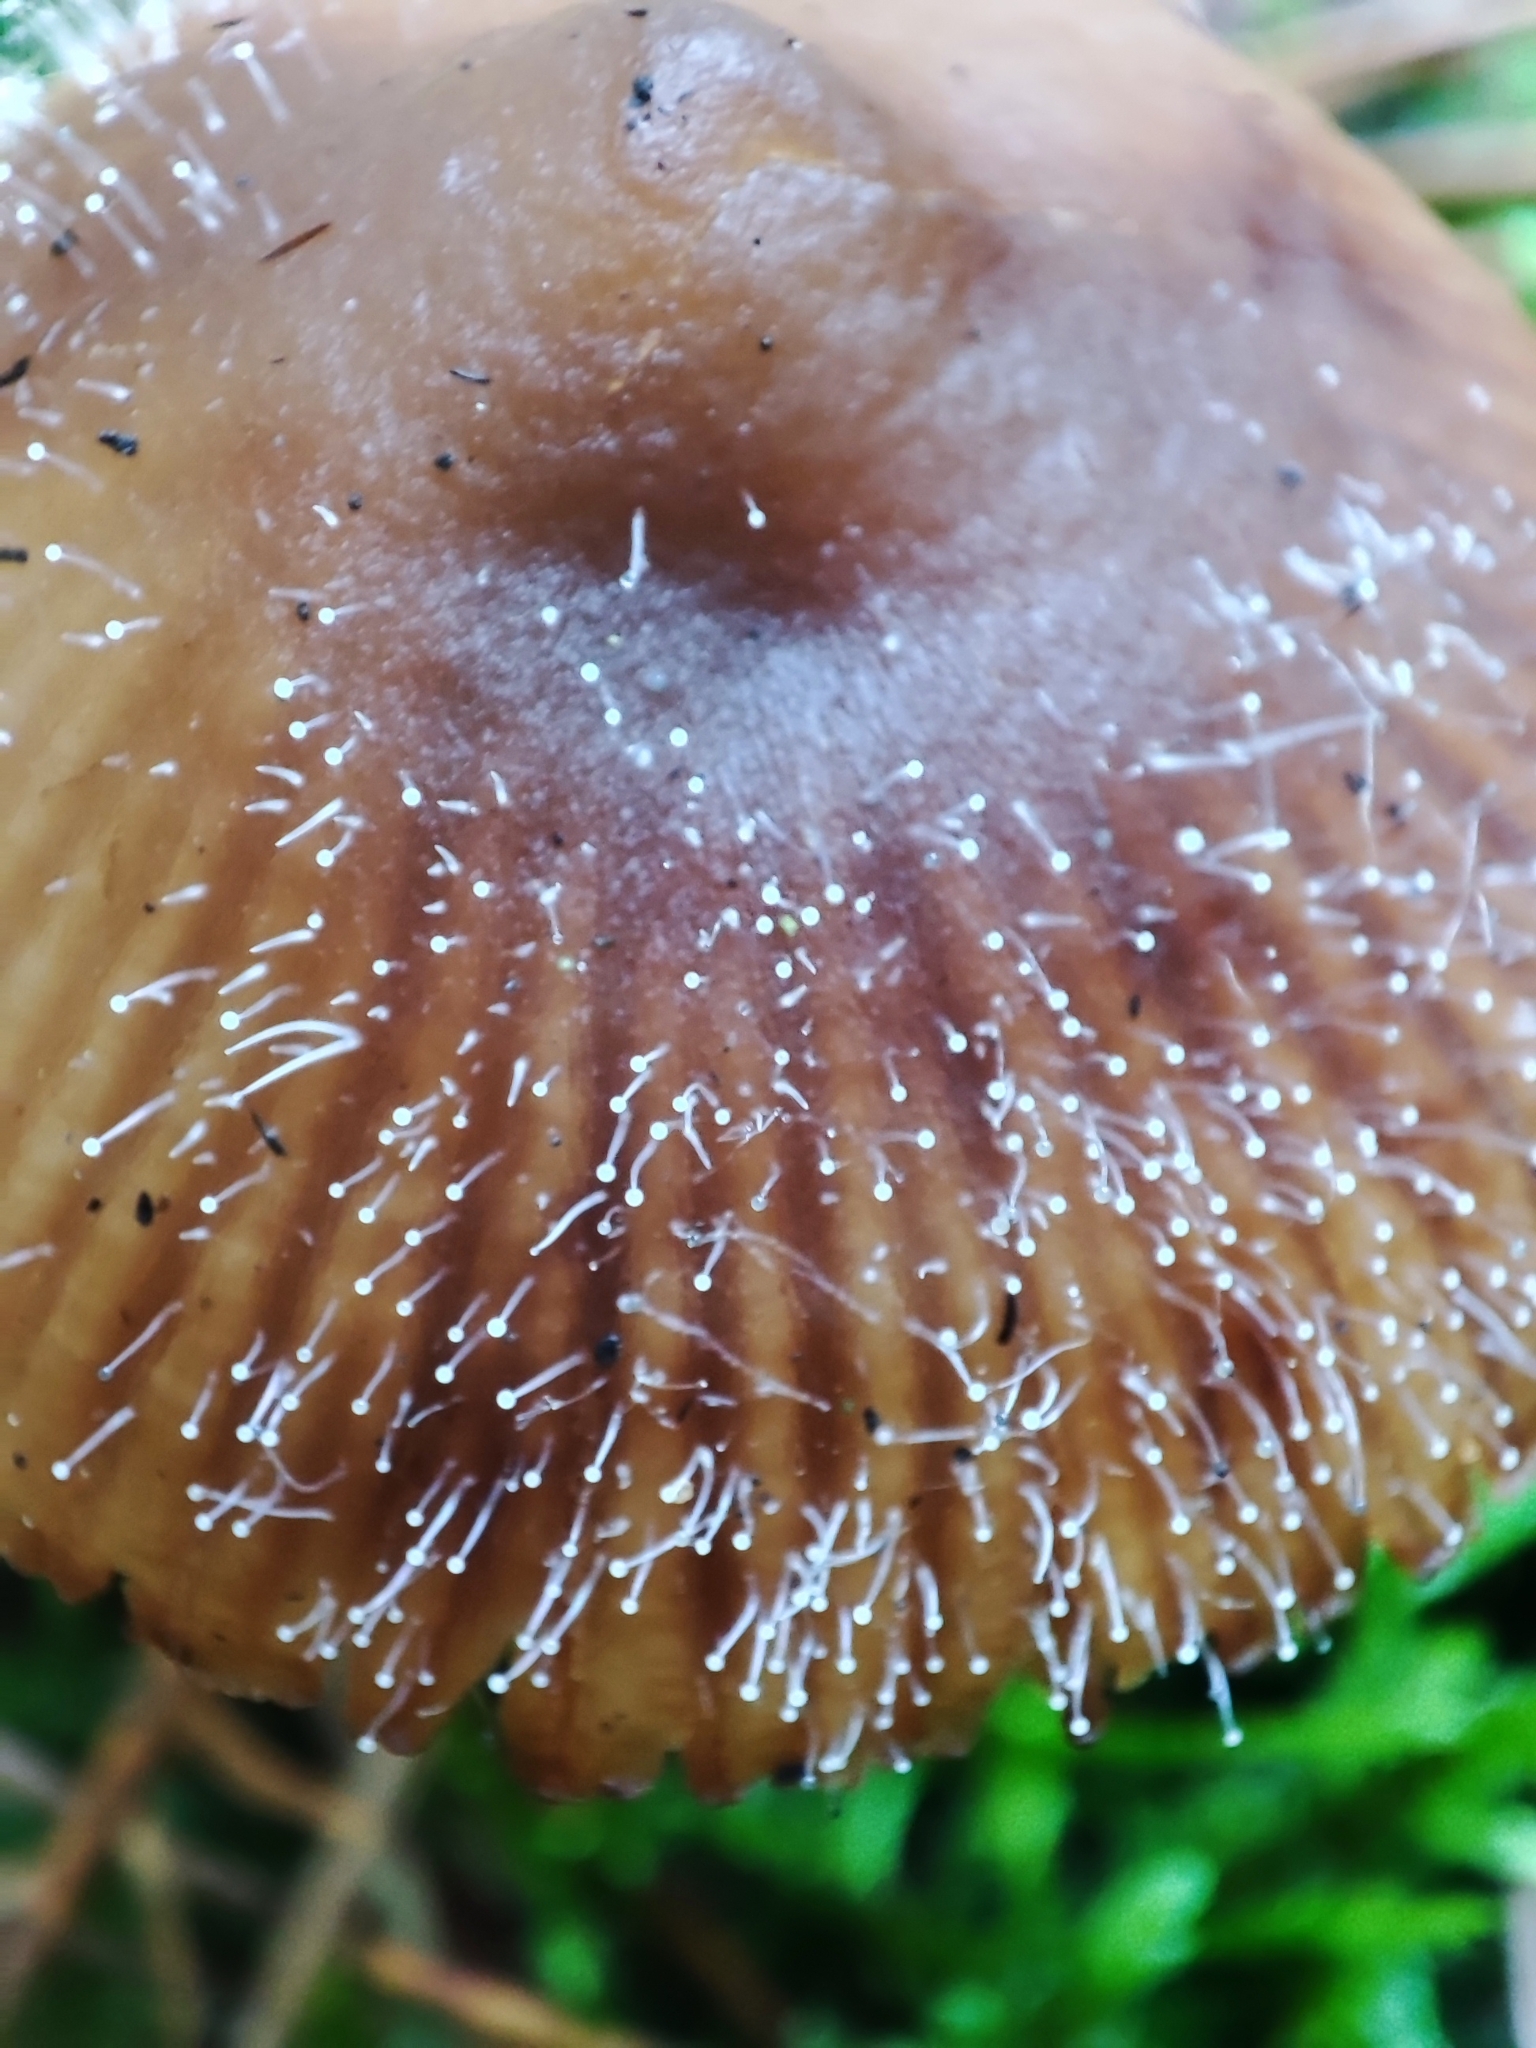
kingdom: Fungi
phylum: Mucoromycota
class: Mucoromycetes
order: Mucorales
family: Phycomycetaceae
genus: Spinellus
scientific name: Spinellus fusiger
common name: Bonnet mould
